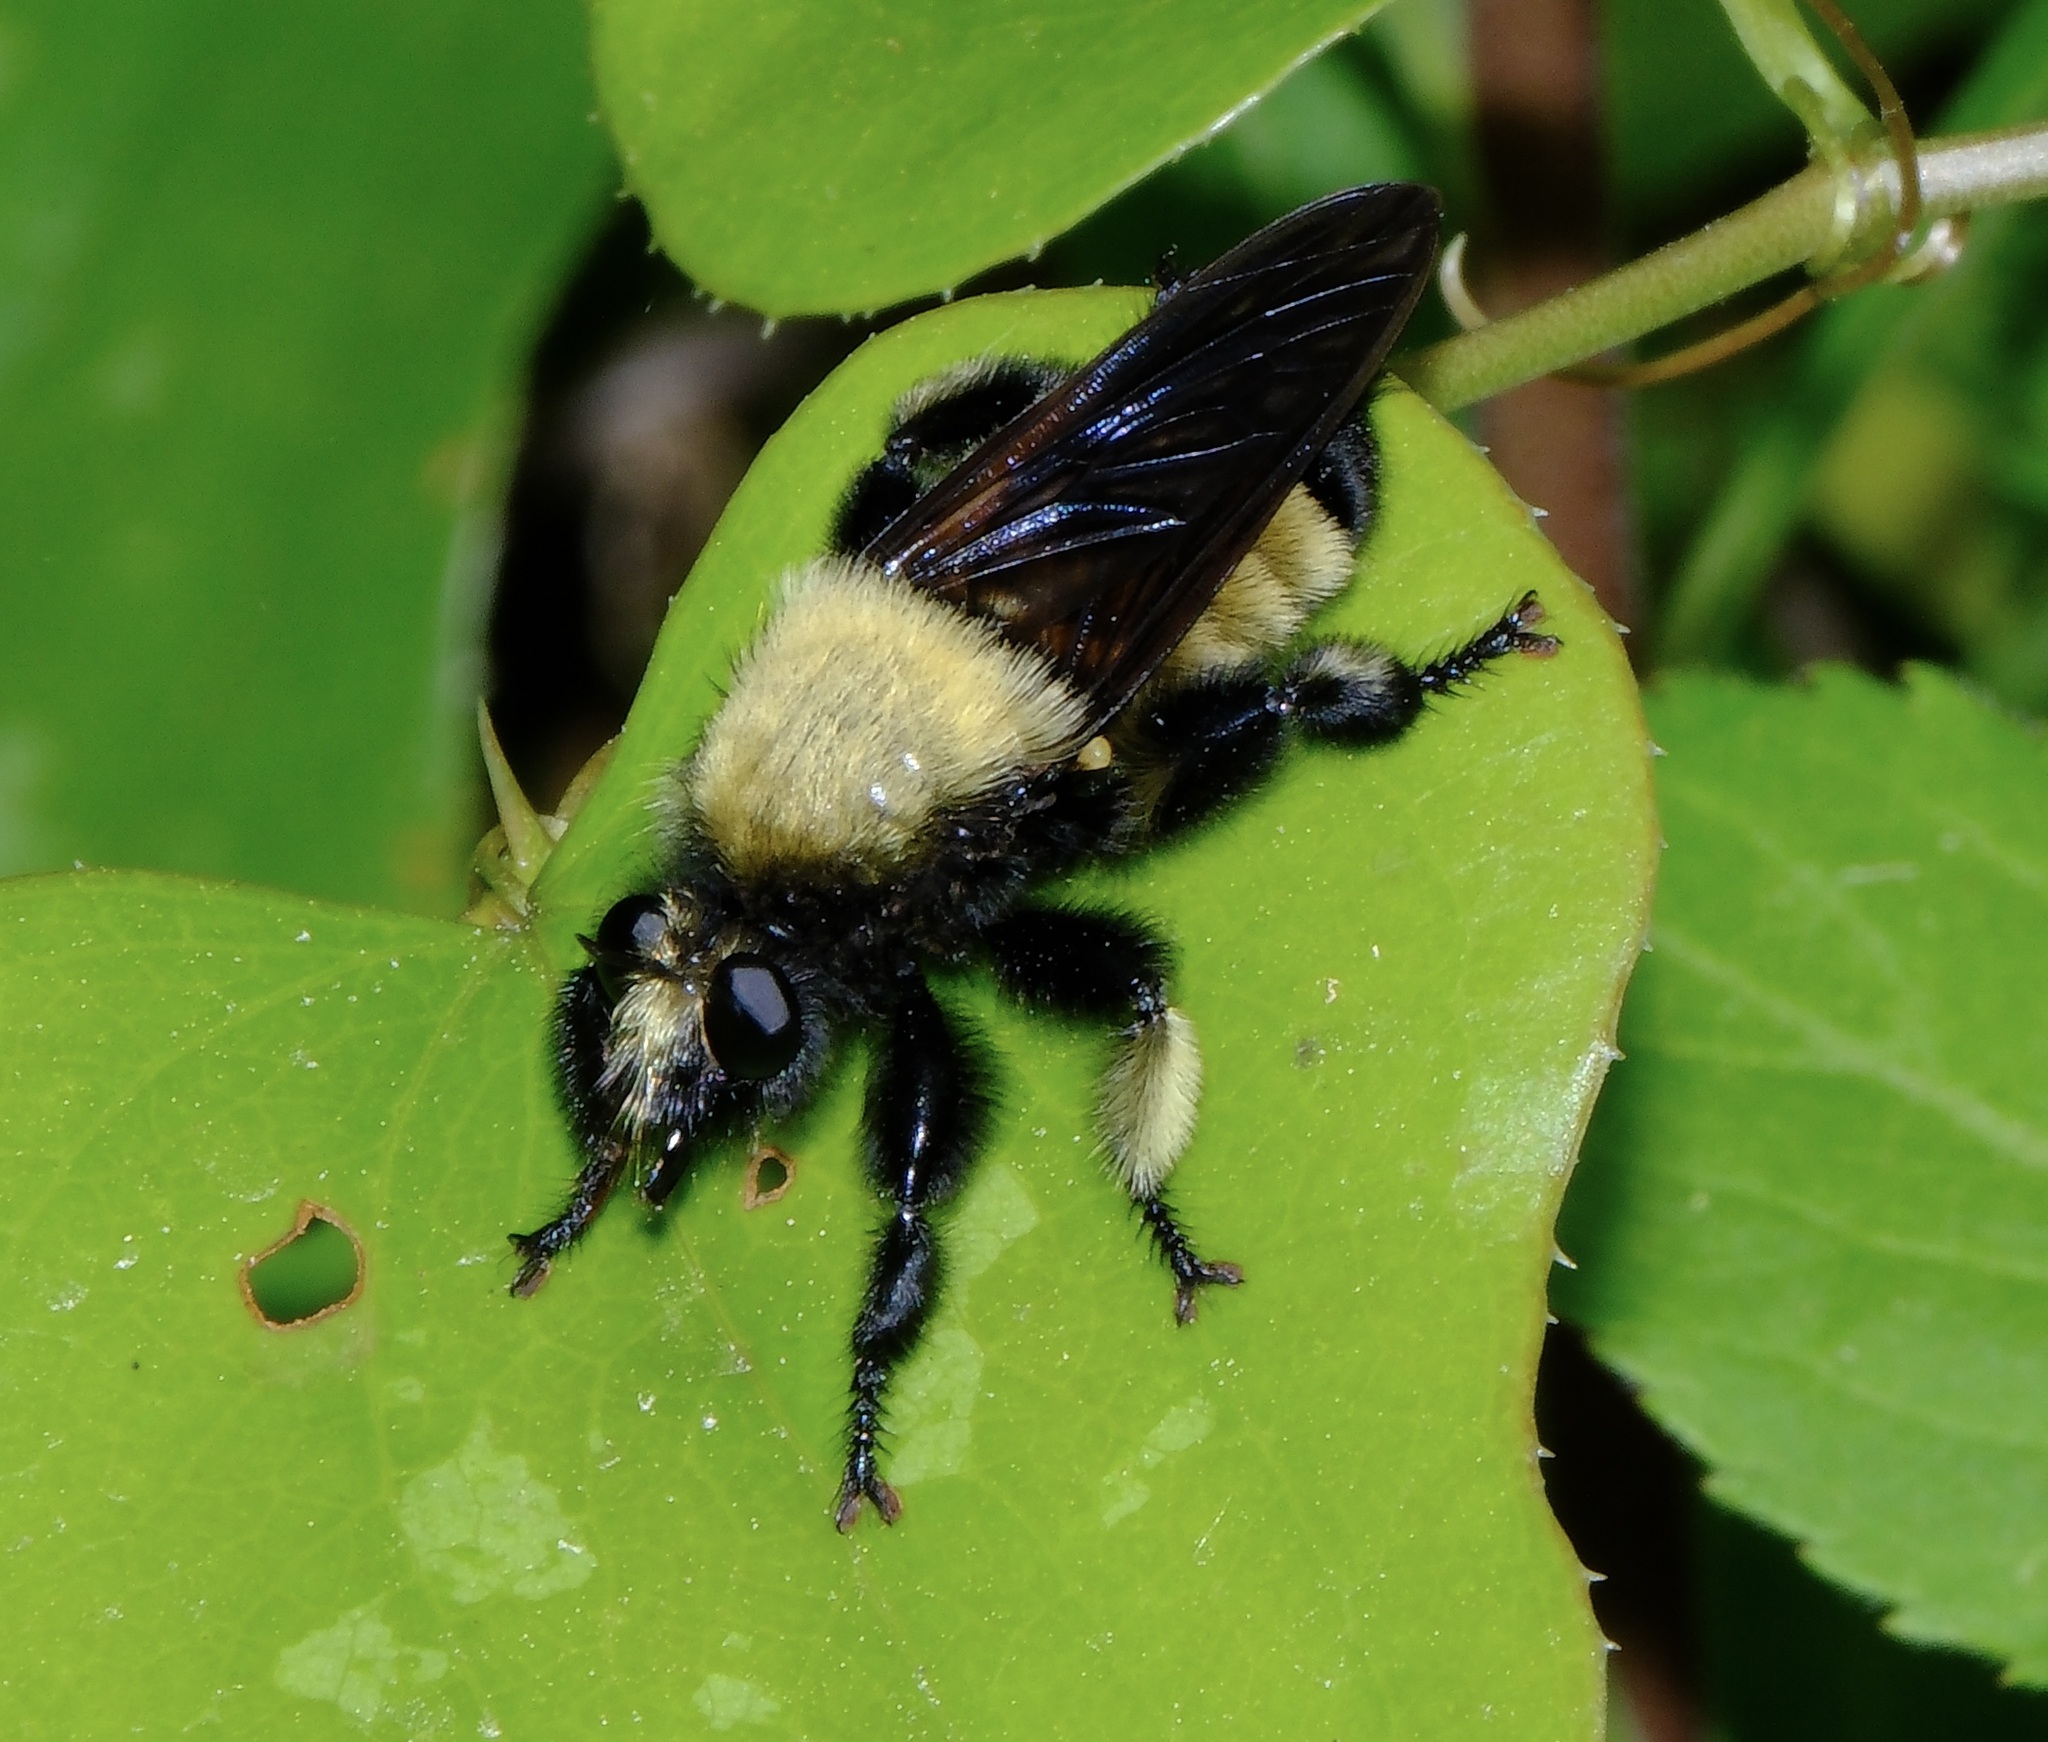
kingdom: Animalia
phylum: Arthropoda
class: Insecta
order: Diptera
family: Asilidae
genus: Laphria
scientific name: Laphria macquarti
